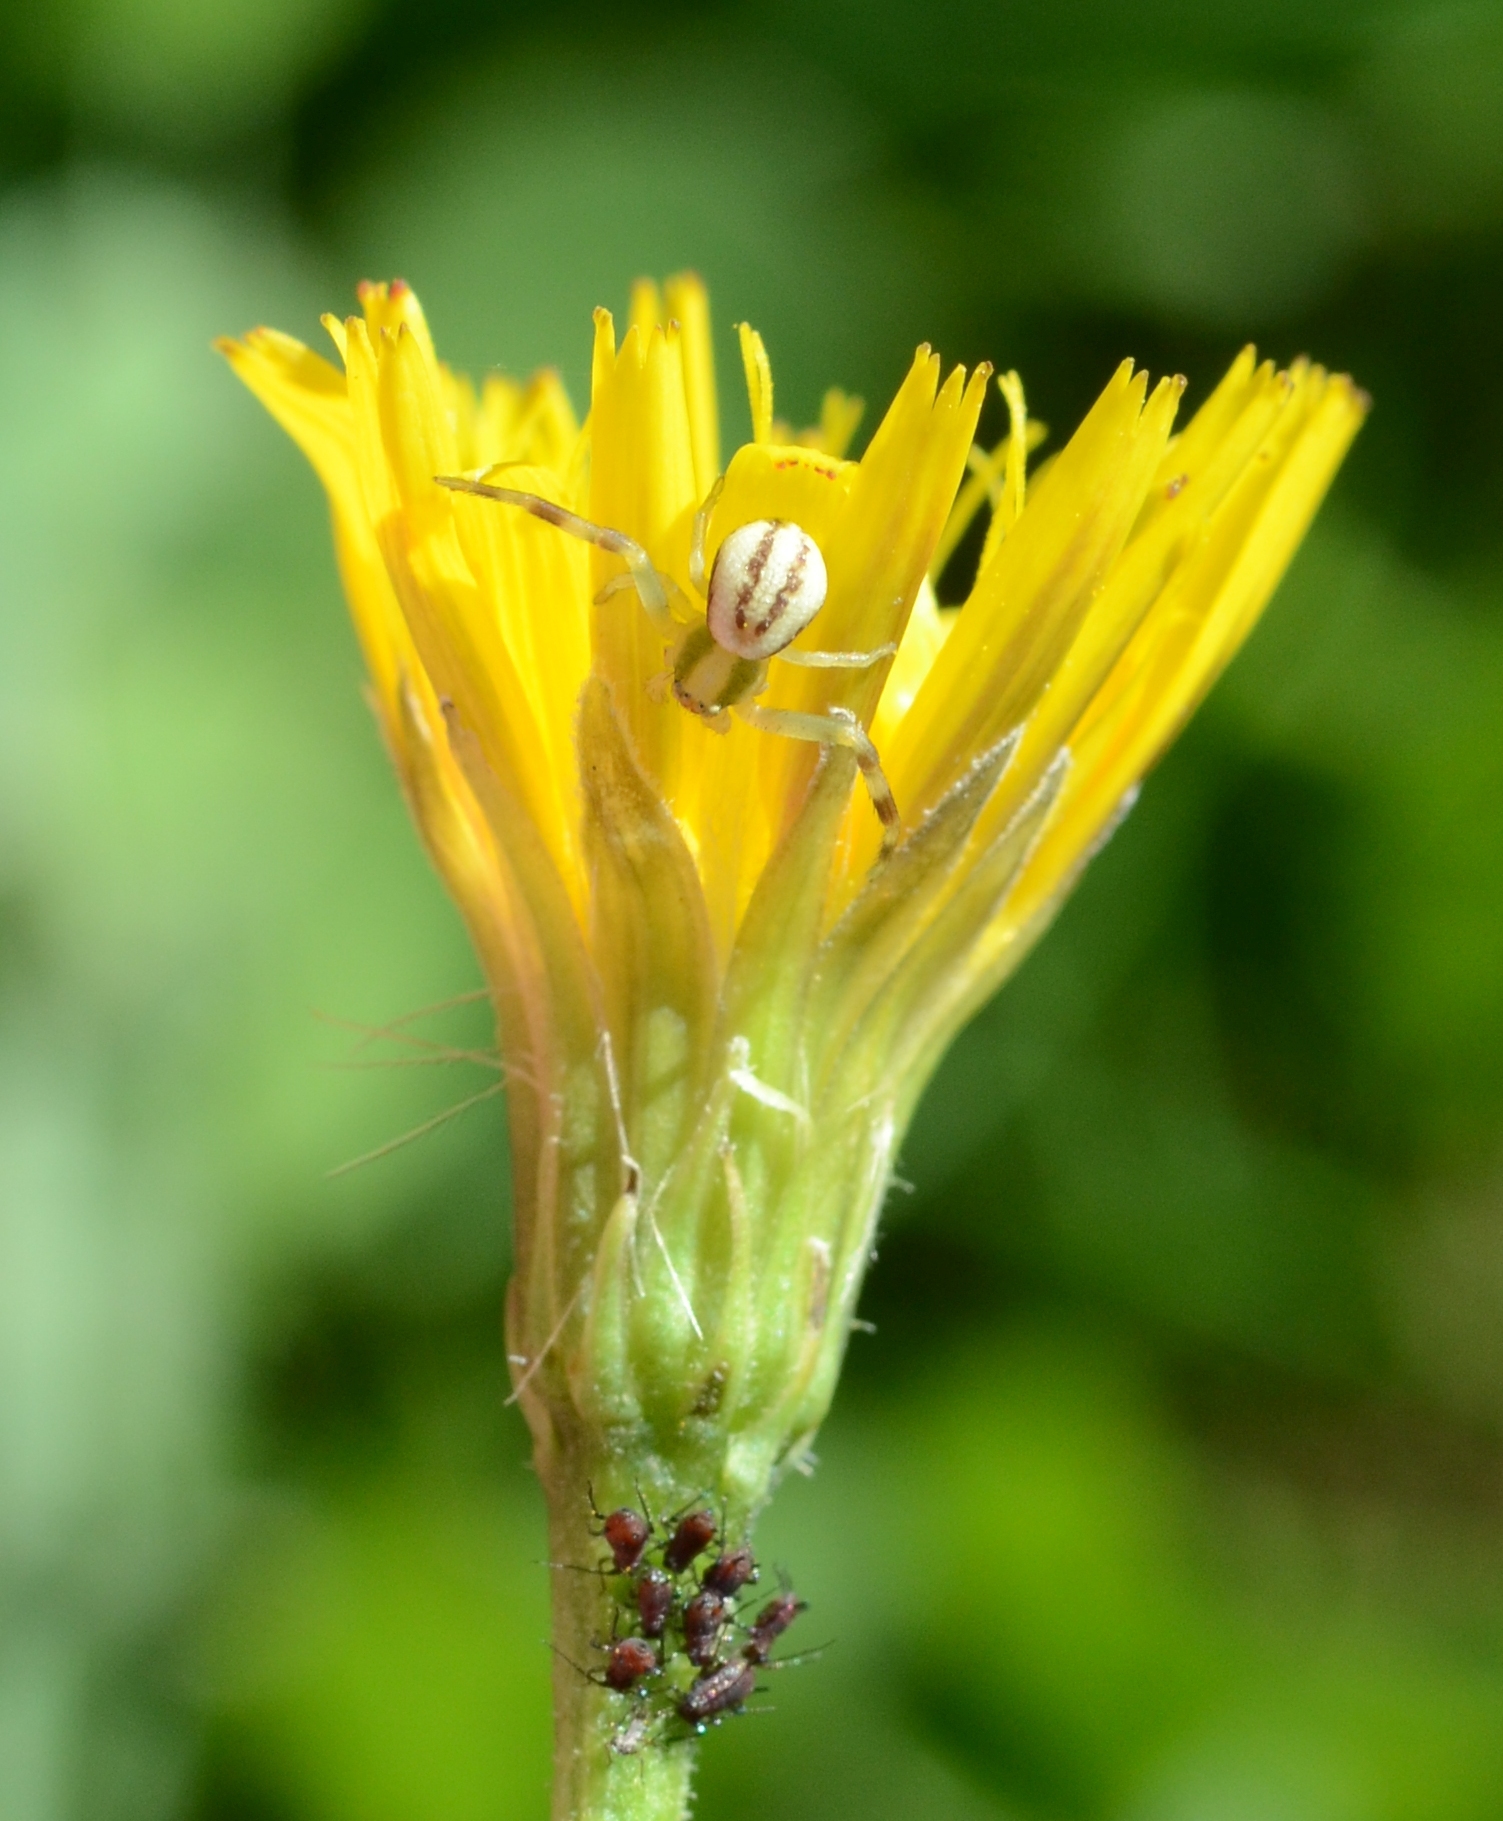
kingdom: Animalia
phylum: Arthropoda
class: Arachnida
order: Araneae
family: Thomisidae
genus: Misumena
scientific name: Misumena vatia
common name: Goldenrod crab spider
